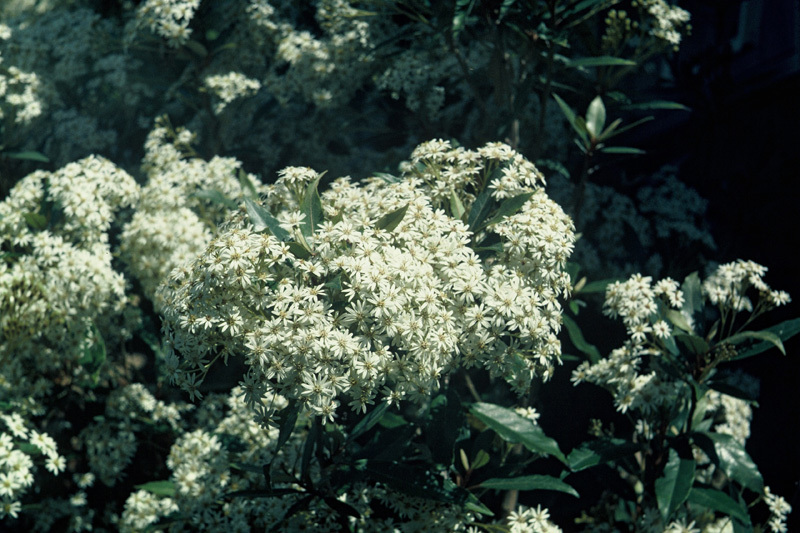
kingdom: Plantae
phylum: Tracheophyta
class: Magnoliopsida
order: Asterales
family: Asteraceae
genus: Olearia
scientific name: Olearia cheesemanii
